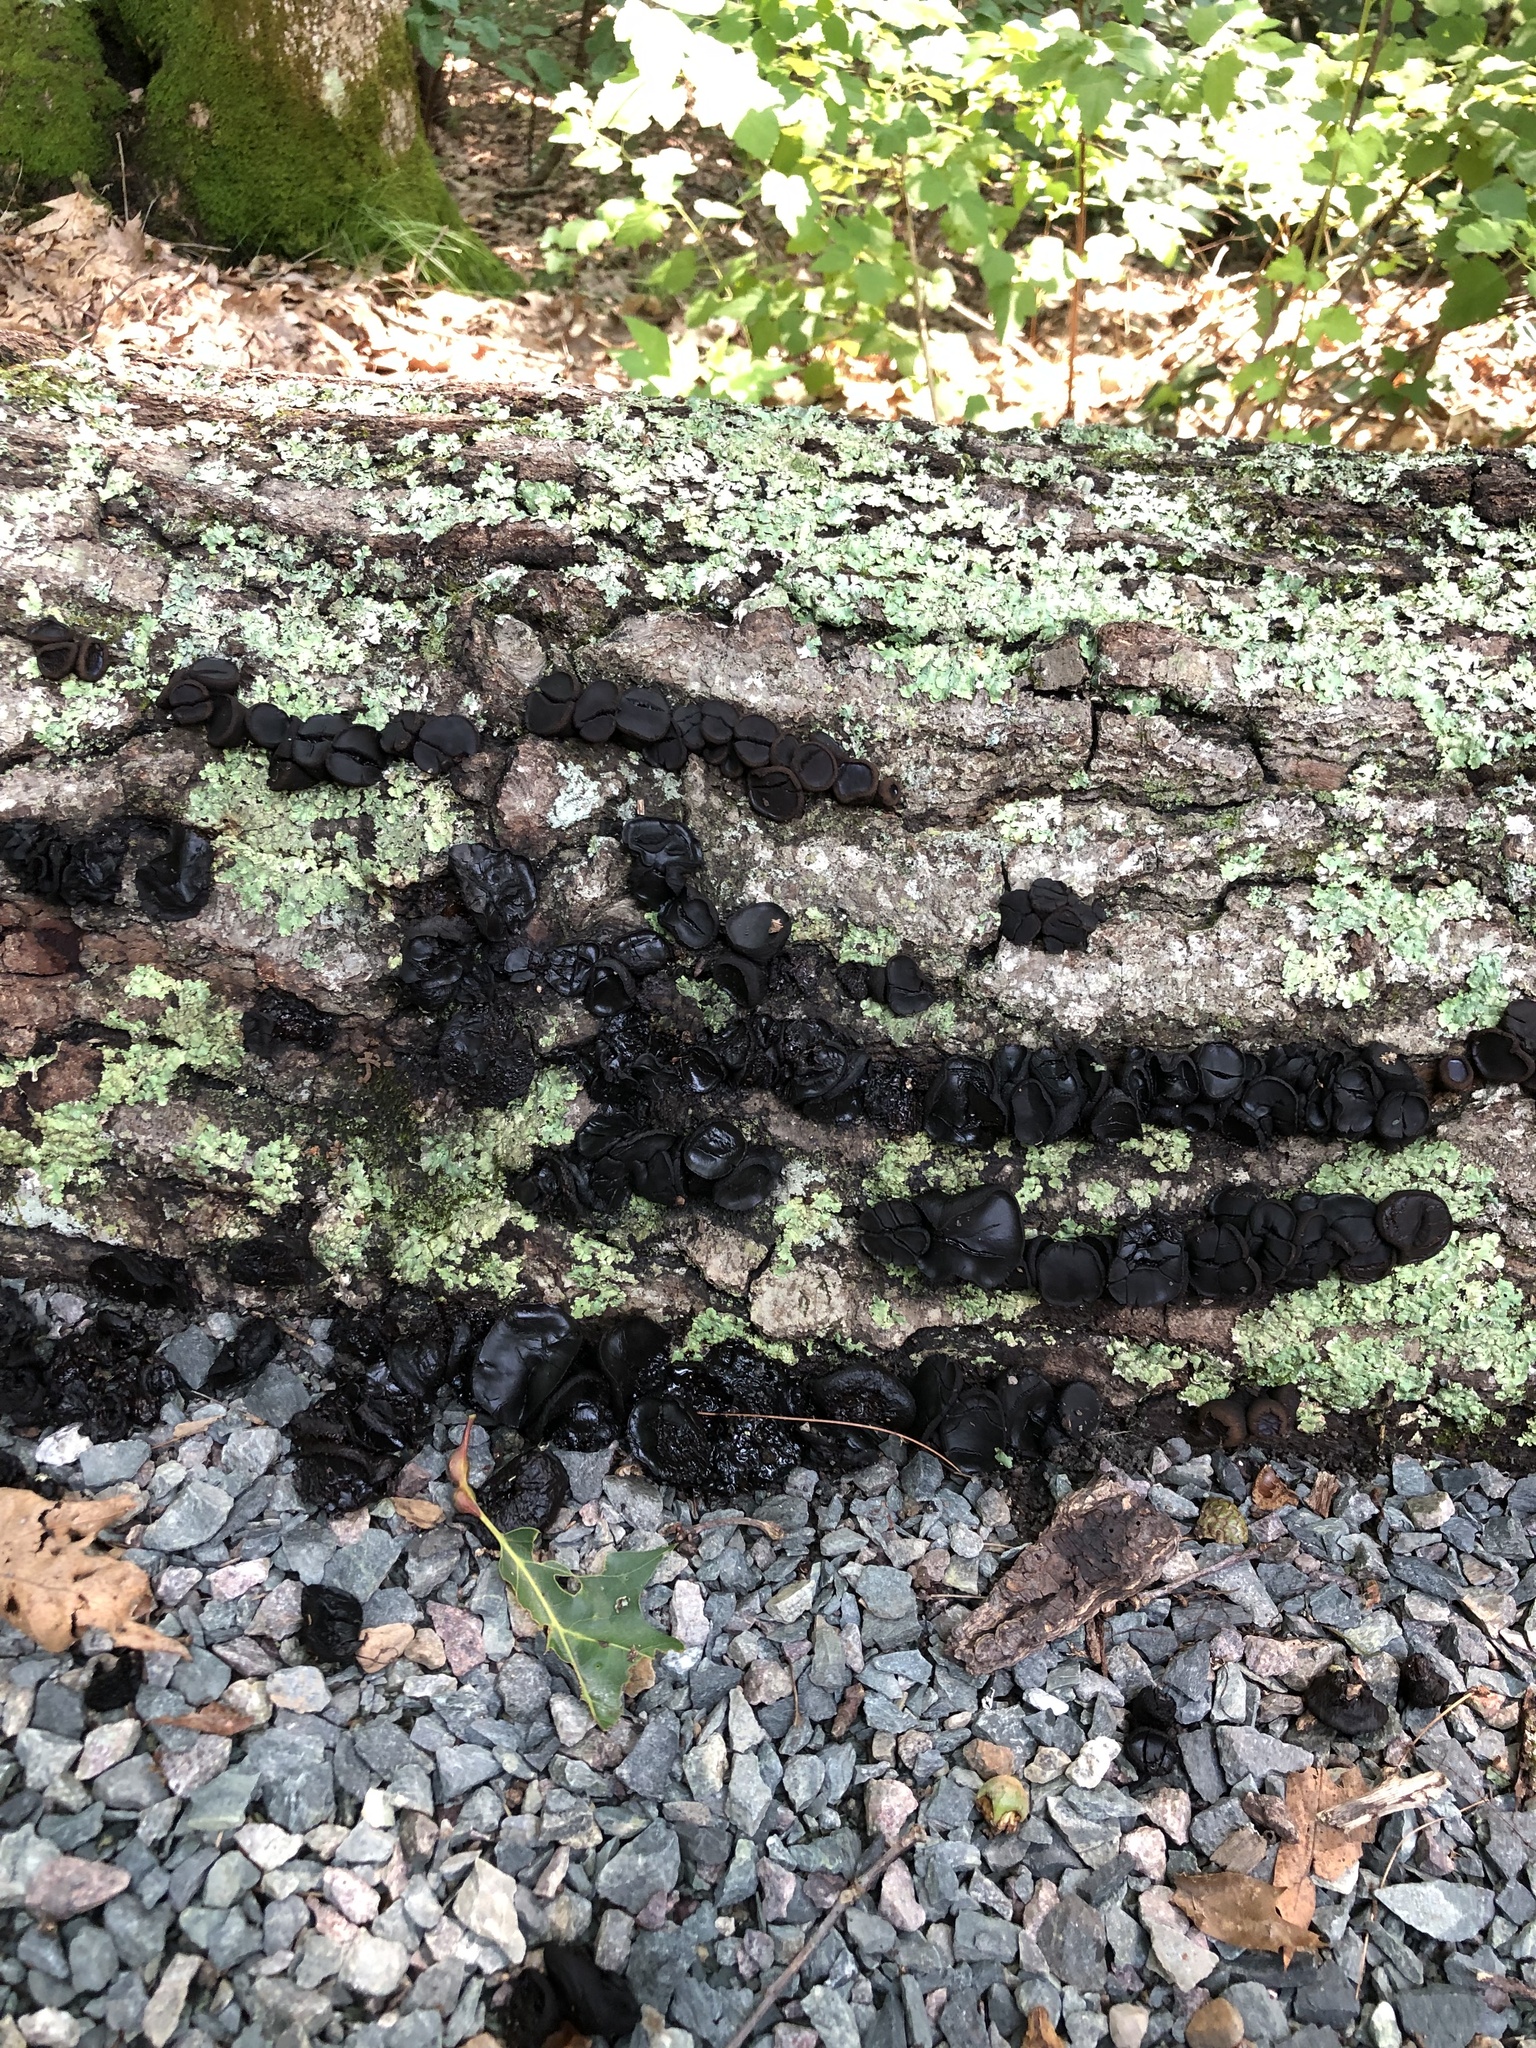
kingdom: Fungi
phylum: Ascomycota
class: Leotiomycetes
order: Phacidiales
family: Phacidiaceae
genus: Bulgaria
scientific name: Bulgaria inquinans
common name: Black bulgar
